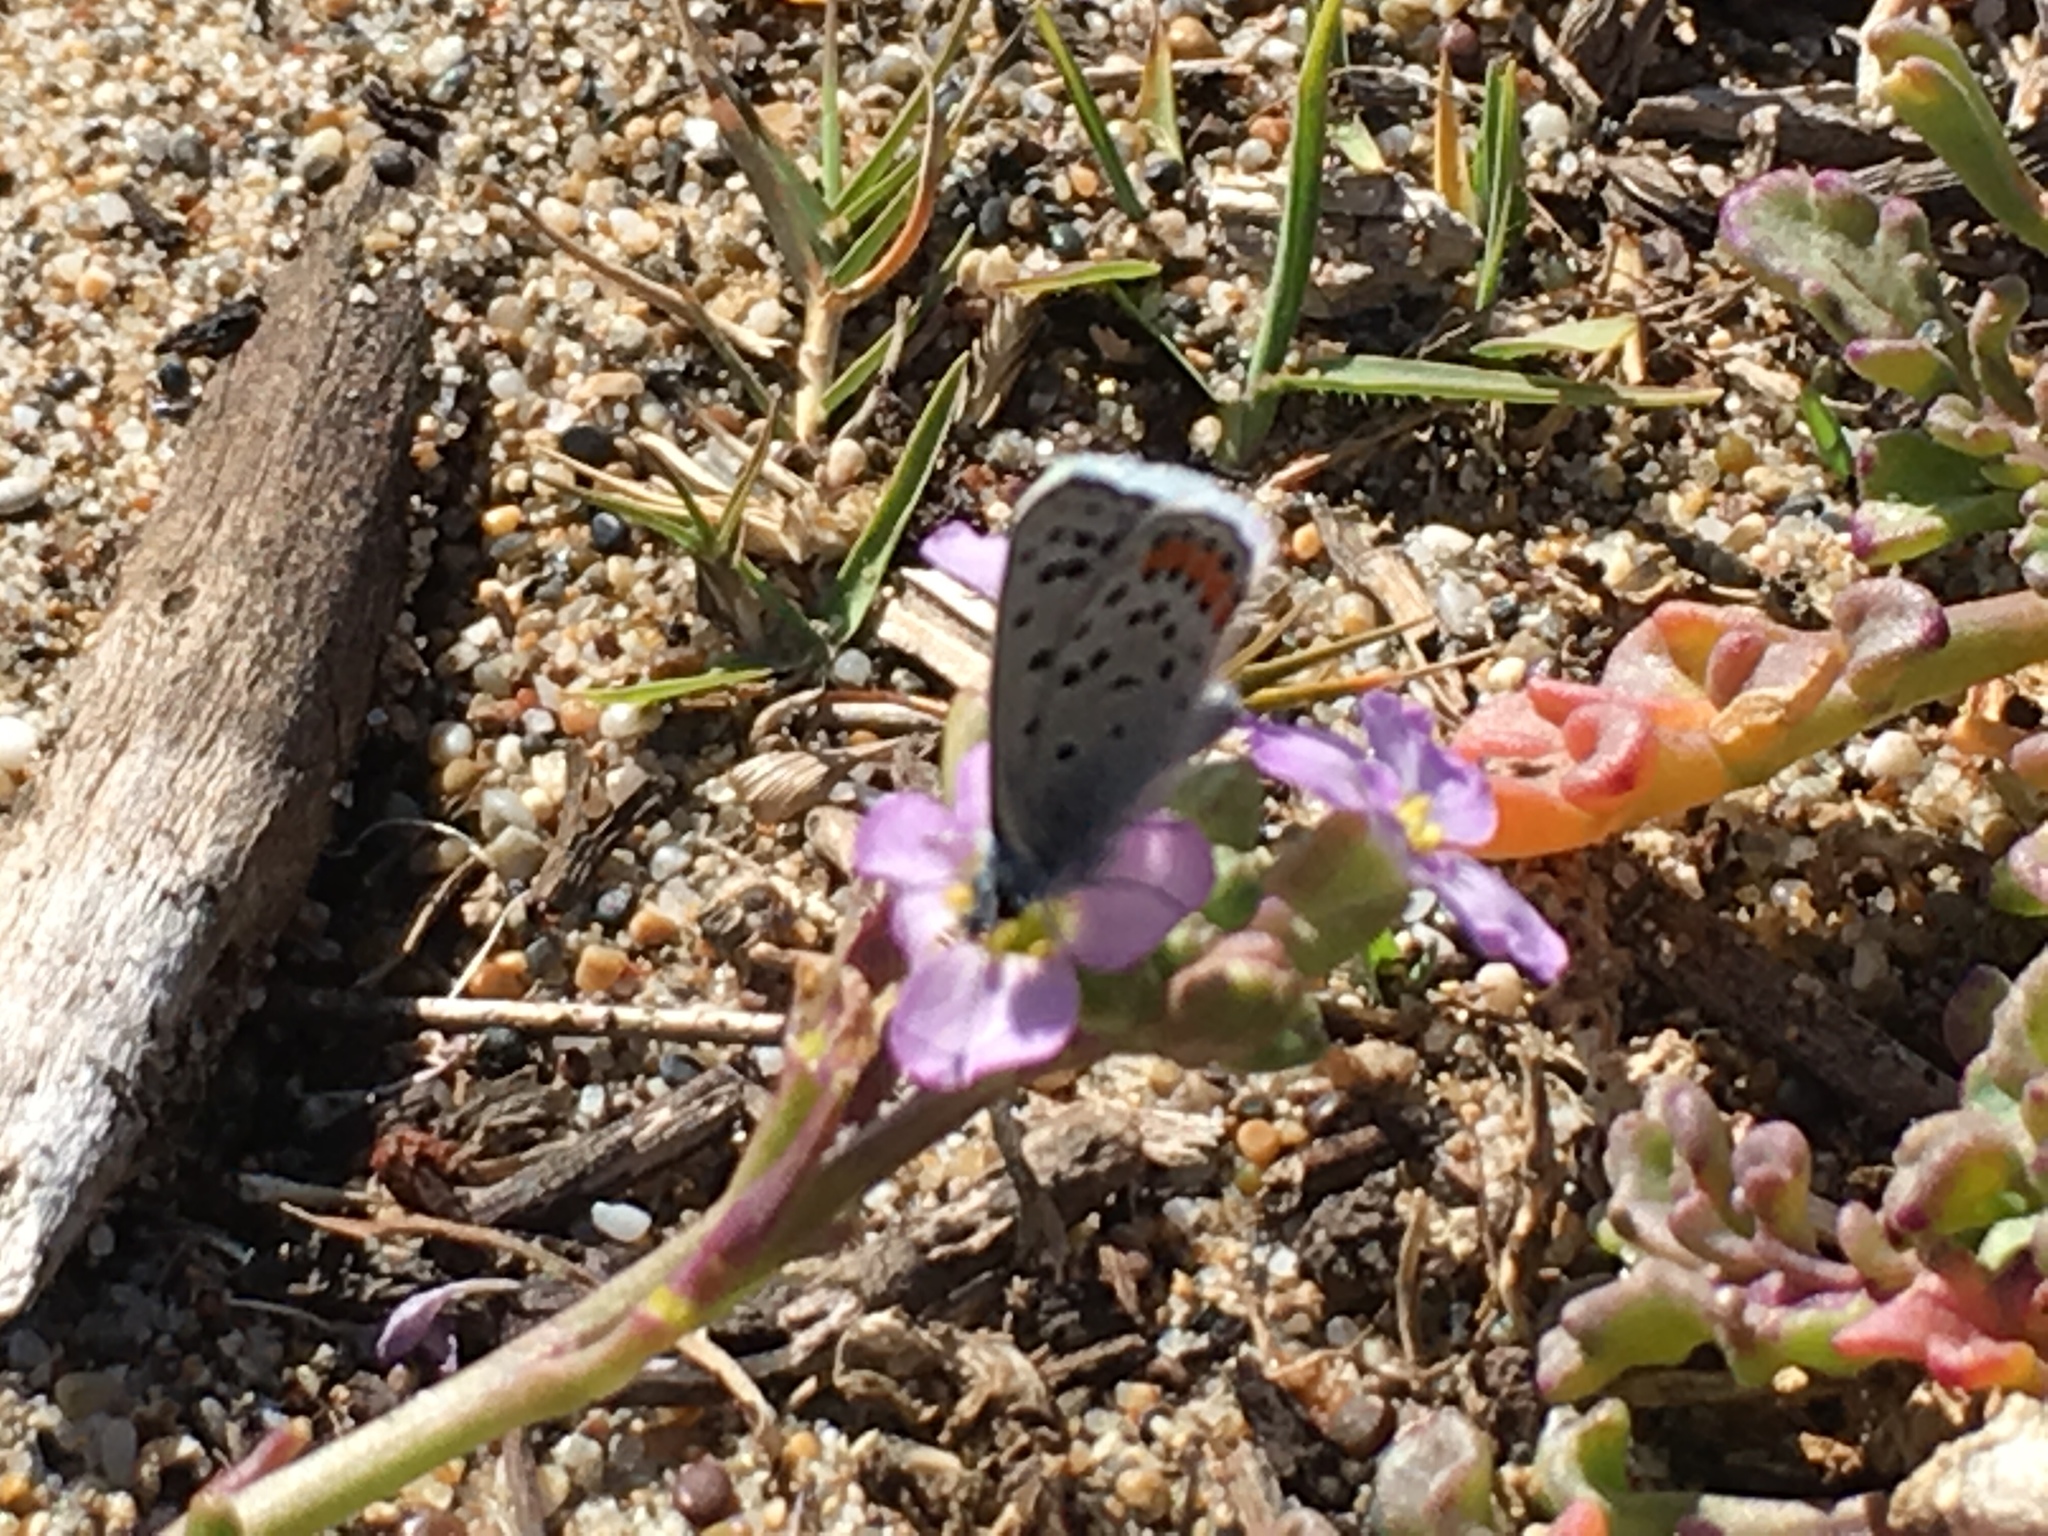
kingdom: Animalia
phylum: Arthropoda
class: Insecta
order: Lepidoptera
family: Lycaenidae
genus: Icaricia
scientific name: Icaricia acmon
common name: Acmon blue
